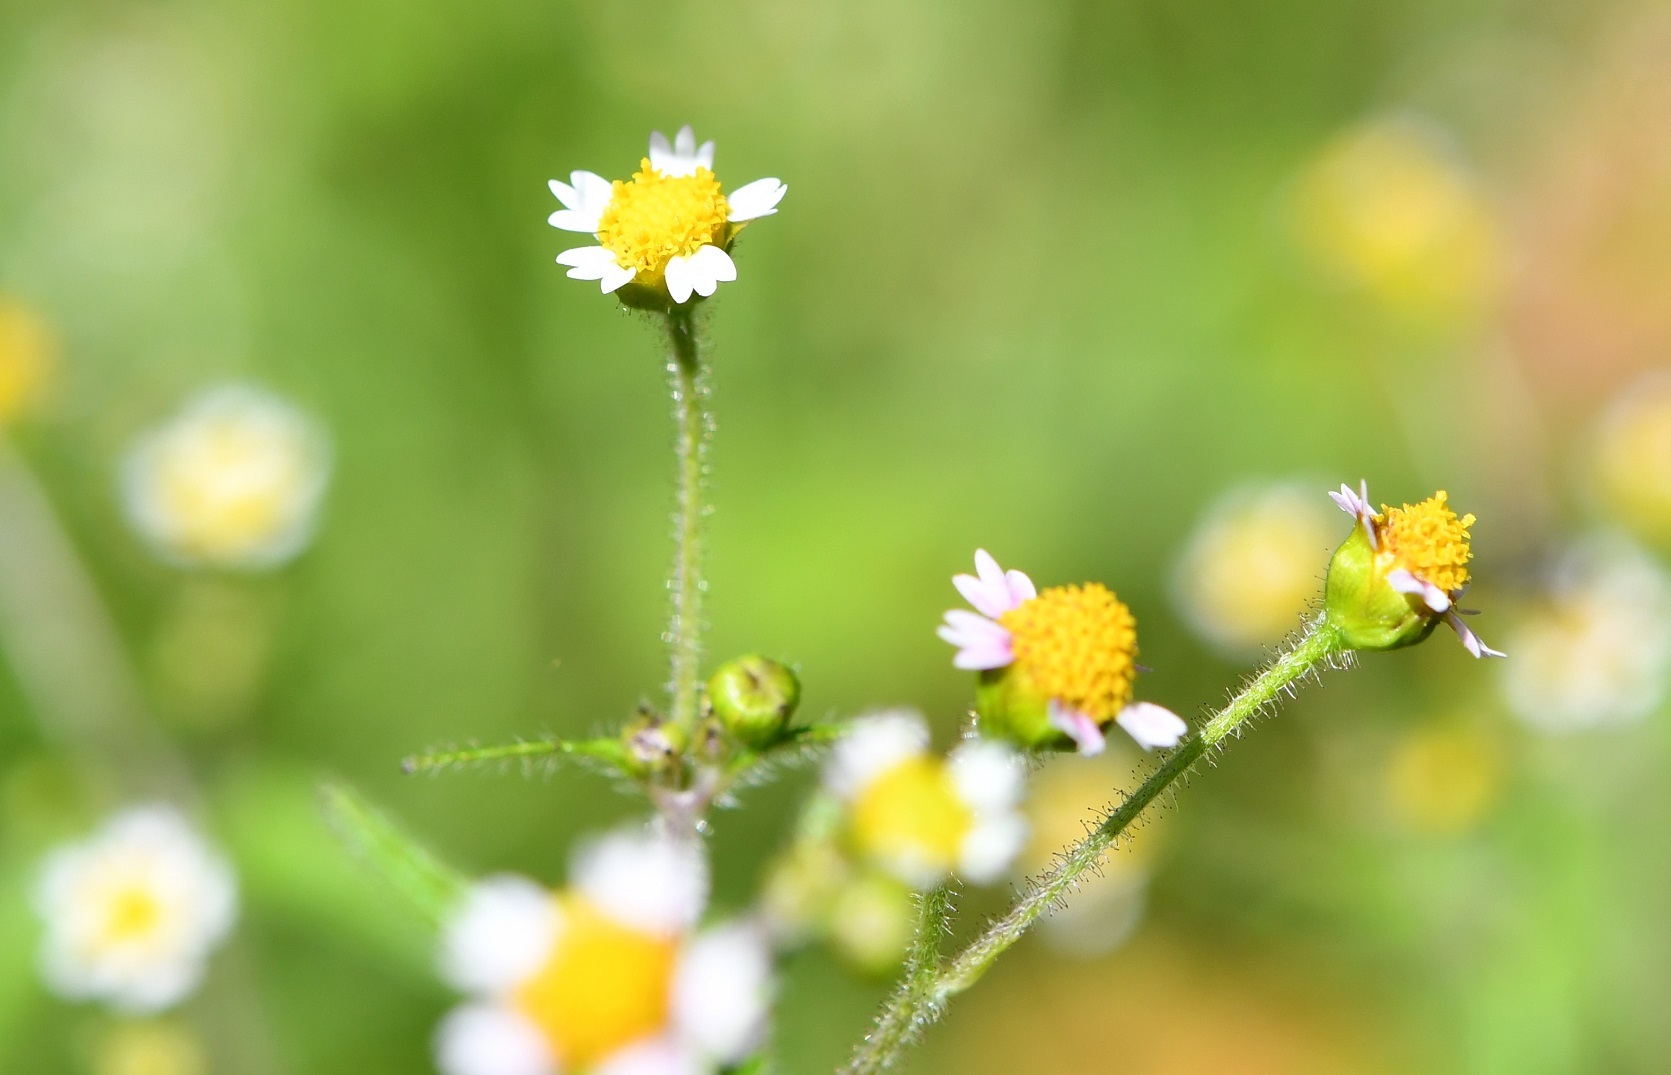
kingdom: Plantae
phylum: Tracheophyta
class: Magnoliopsida
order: Asterales
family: Asteraceae
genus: Galinsoga
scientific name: Galinsoga quadriradiata
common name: Shaggy soldier
